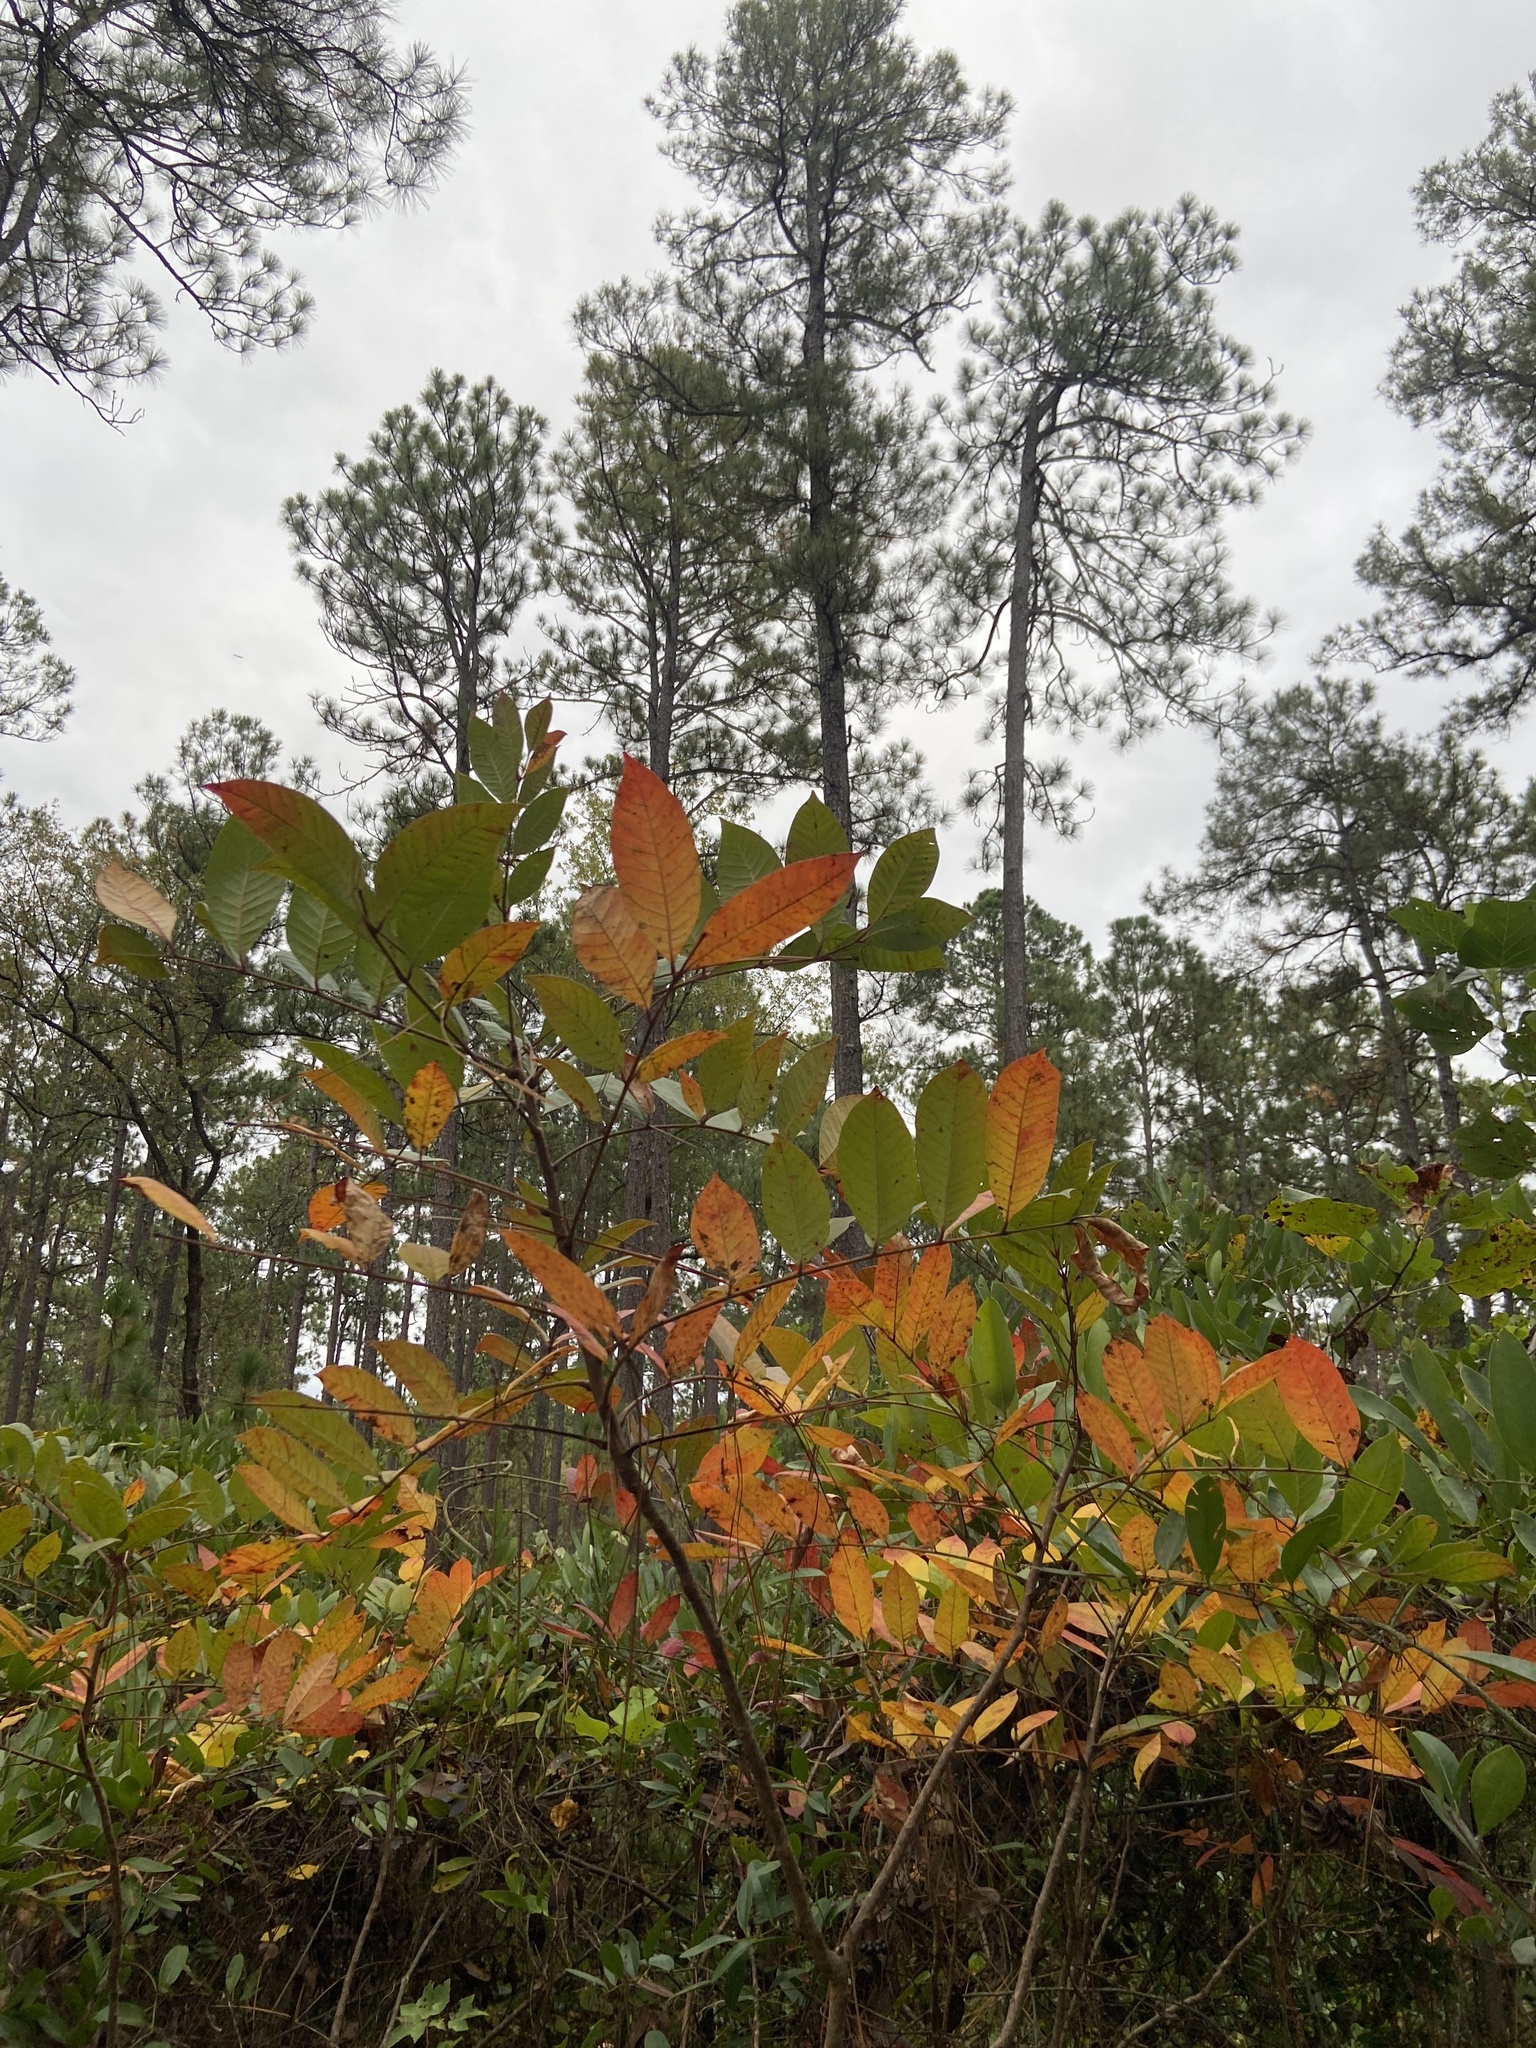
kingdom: Plantae
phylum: Tracheophyta
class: Magnoliopsida
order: Sapindales
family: Anacardiaceae
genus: Toxicodendron
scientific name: Toxicodendron vernix
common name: Poison sumac
